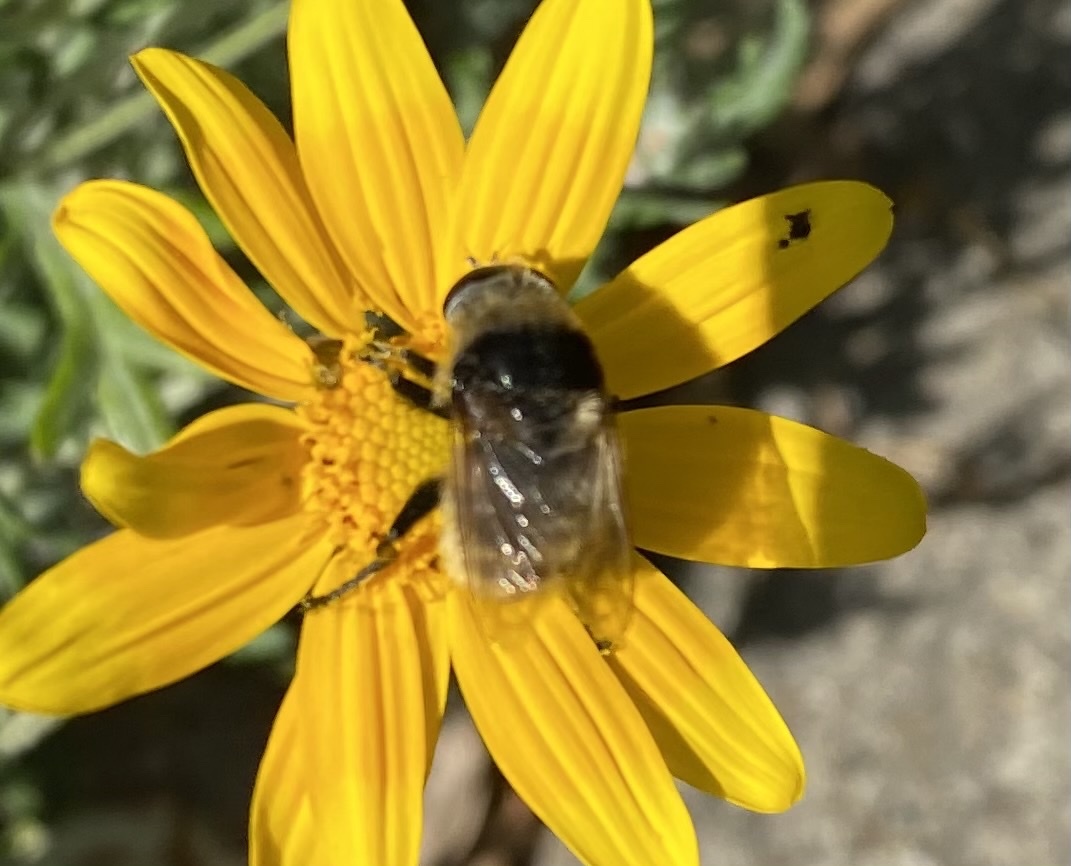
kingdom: Animalia
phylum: Arthropoda
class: Insecta
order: Diptera
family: Syrphidae
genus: Merodon
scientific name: Merodon equestris
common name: Greater bulb-fly
